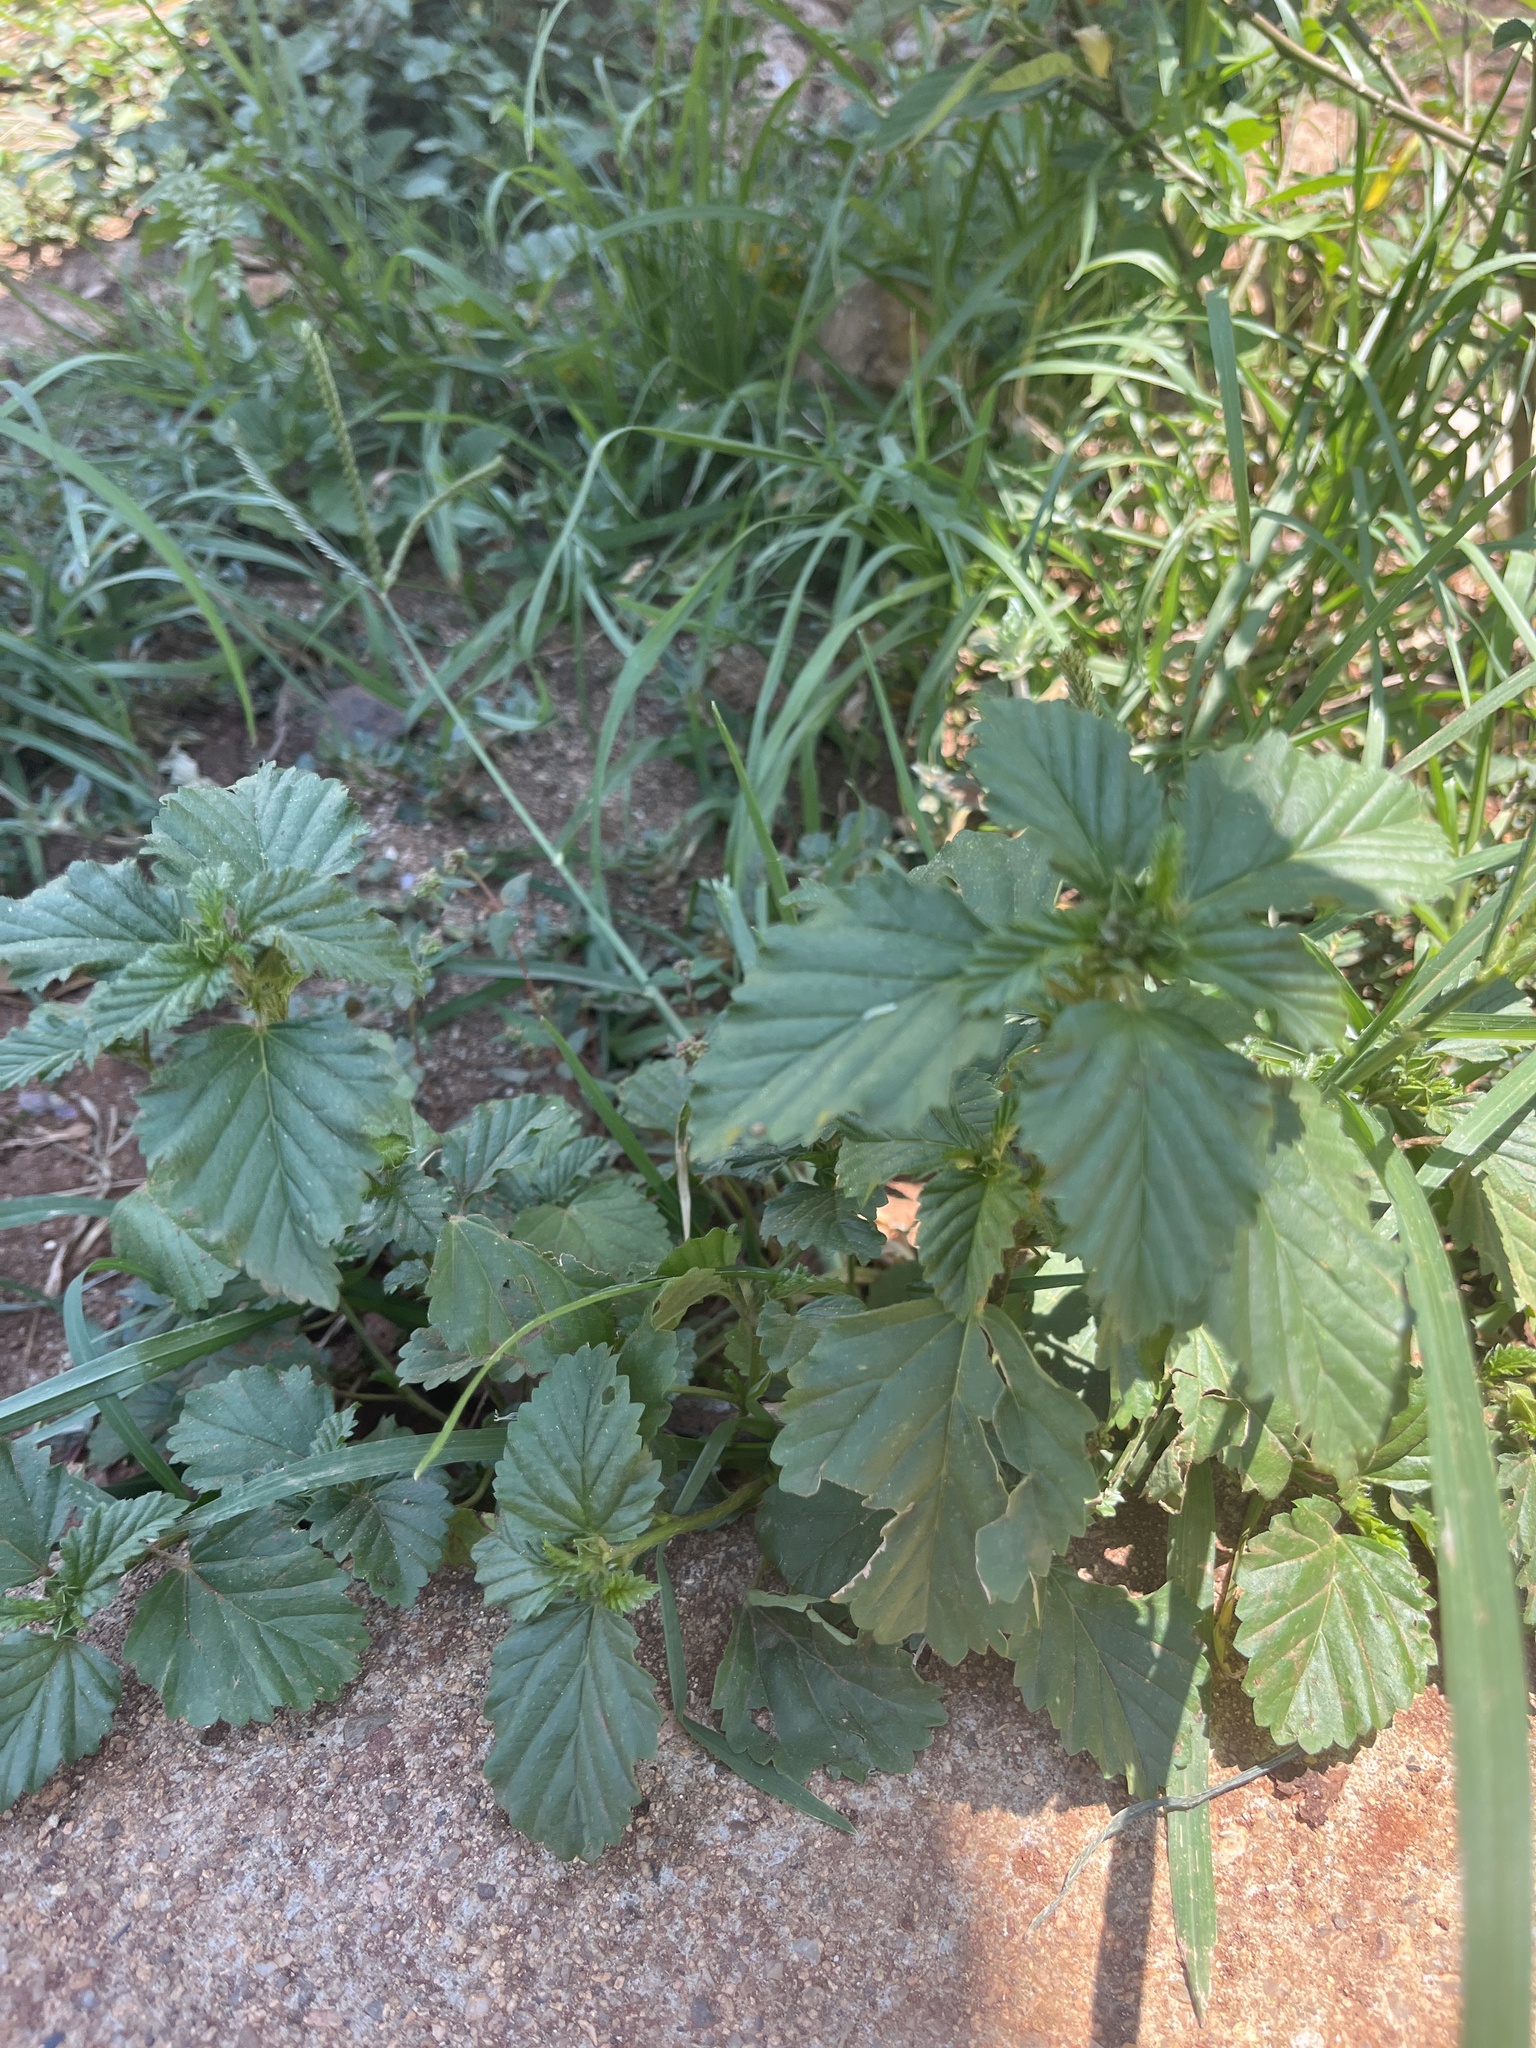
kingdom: Plantae
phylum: Tracheophyta
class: Magnoliopsida
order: Malvales
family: Malvaceae
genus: Malvastrum
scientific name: Malvastrum coromandelianum
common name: Threelobe false mallow
